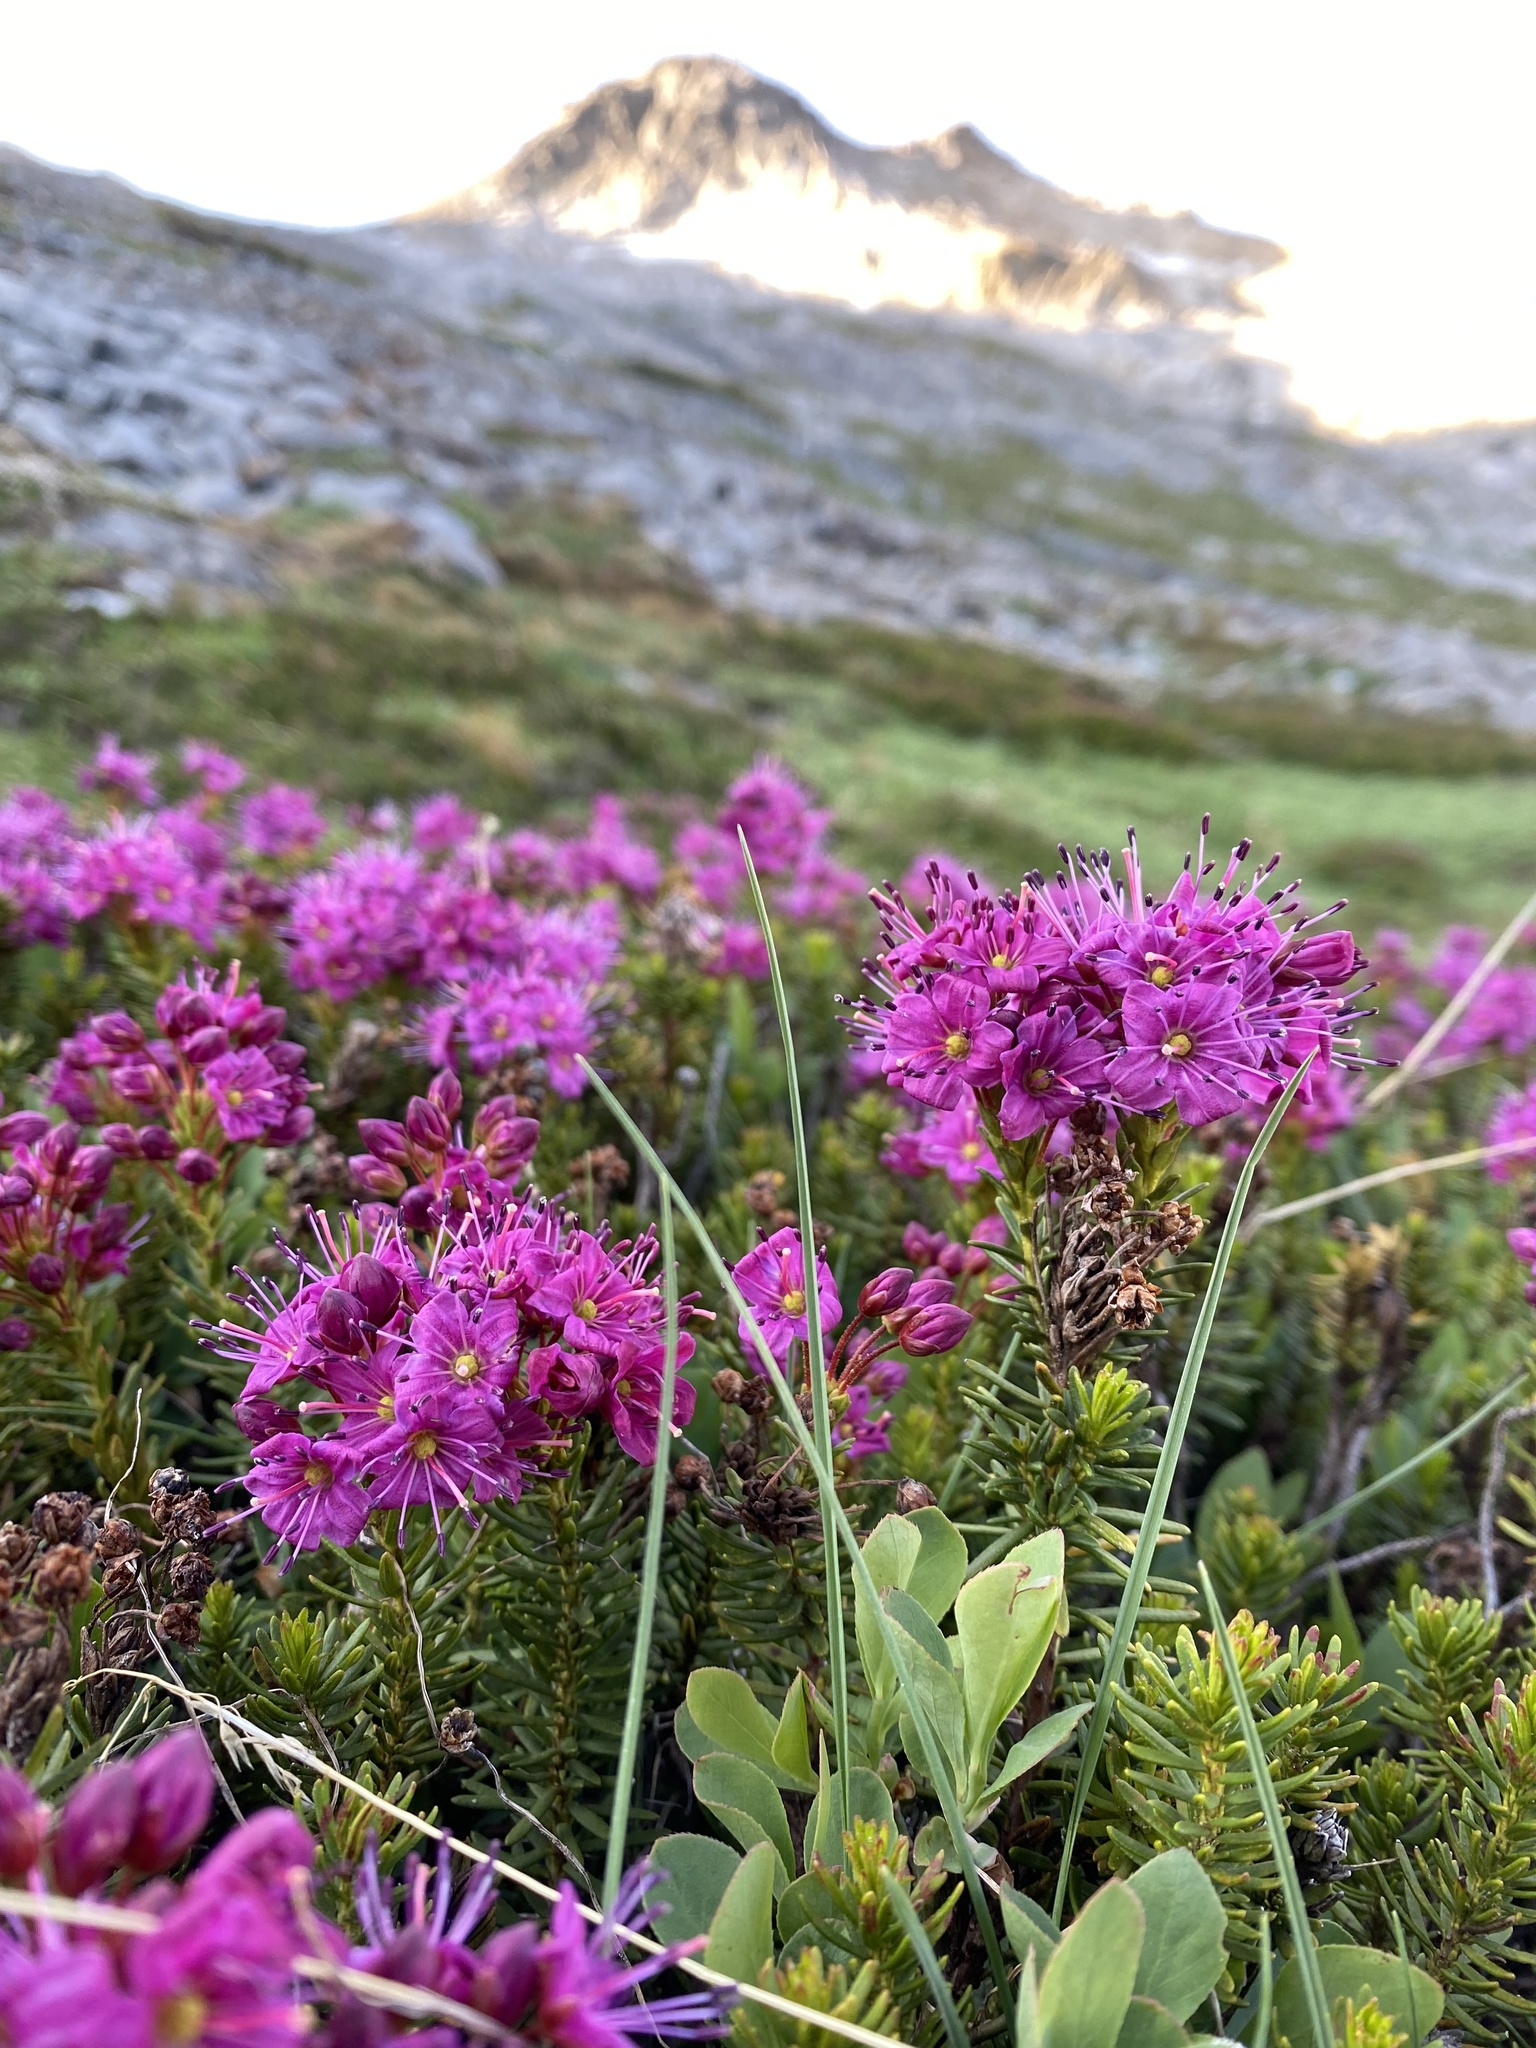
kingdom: Plantae
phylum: Tracheophyta
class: Magnoliopsida
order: Ericales
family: Ericaceae
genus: Phyllodoce
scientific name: Phyllodoce breweri
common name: Brewer's mountain-heather
